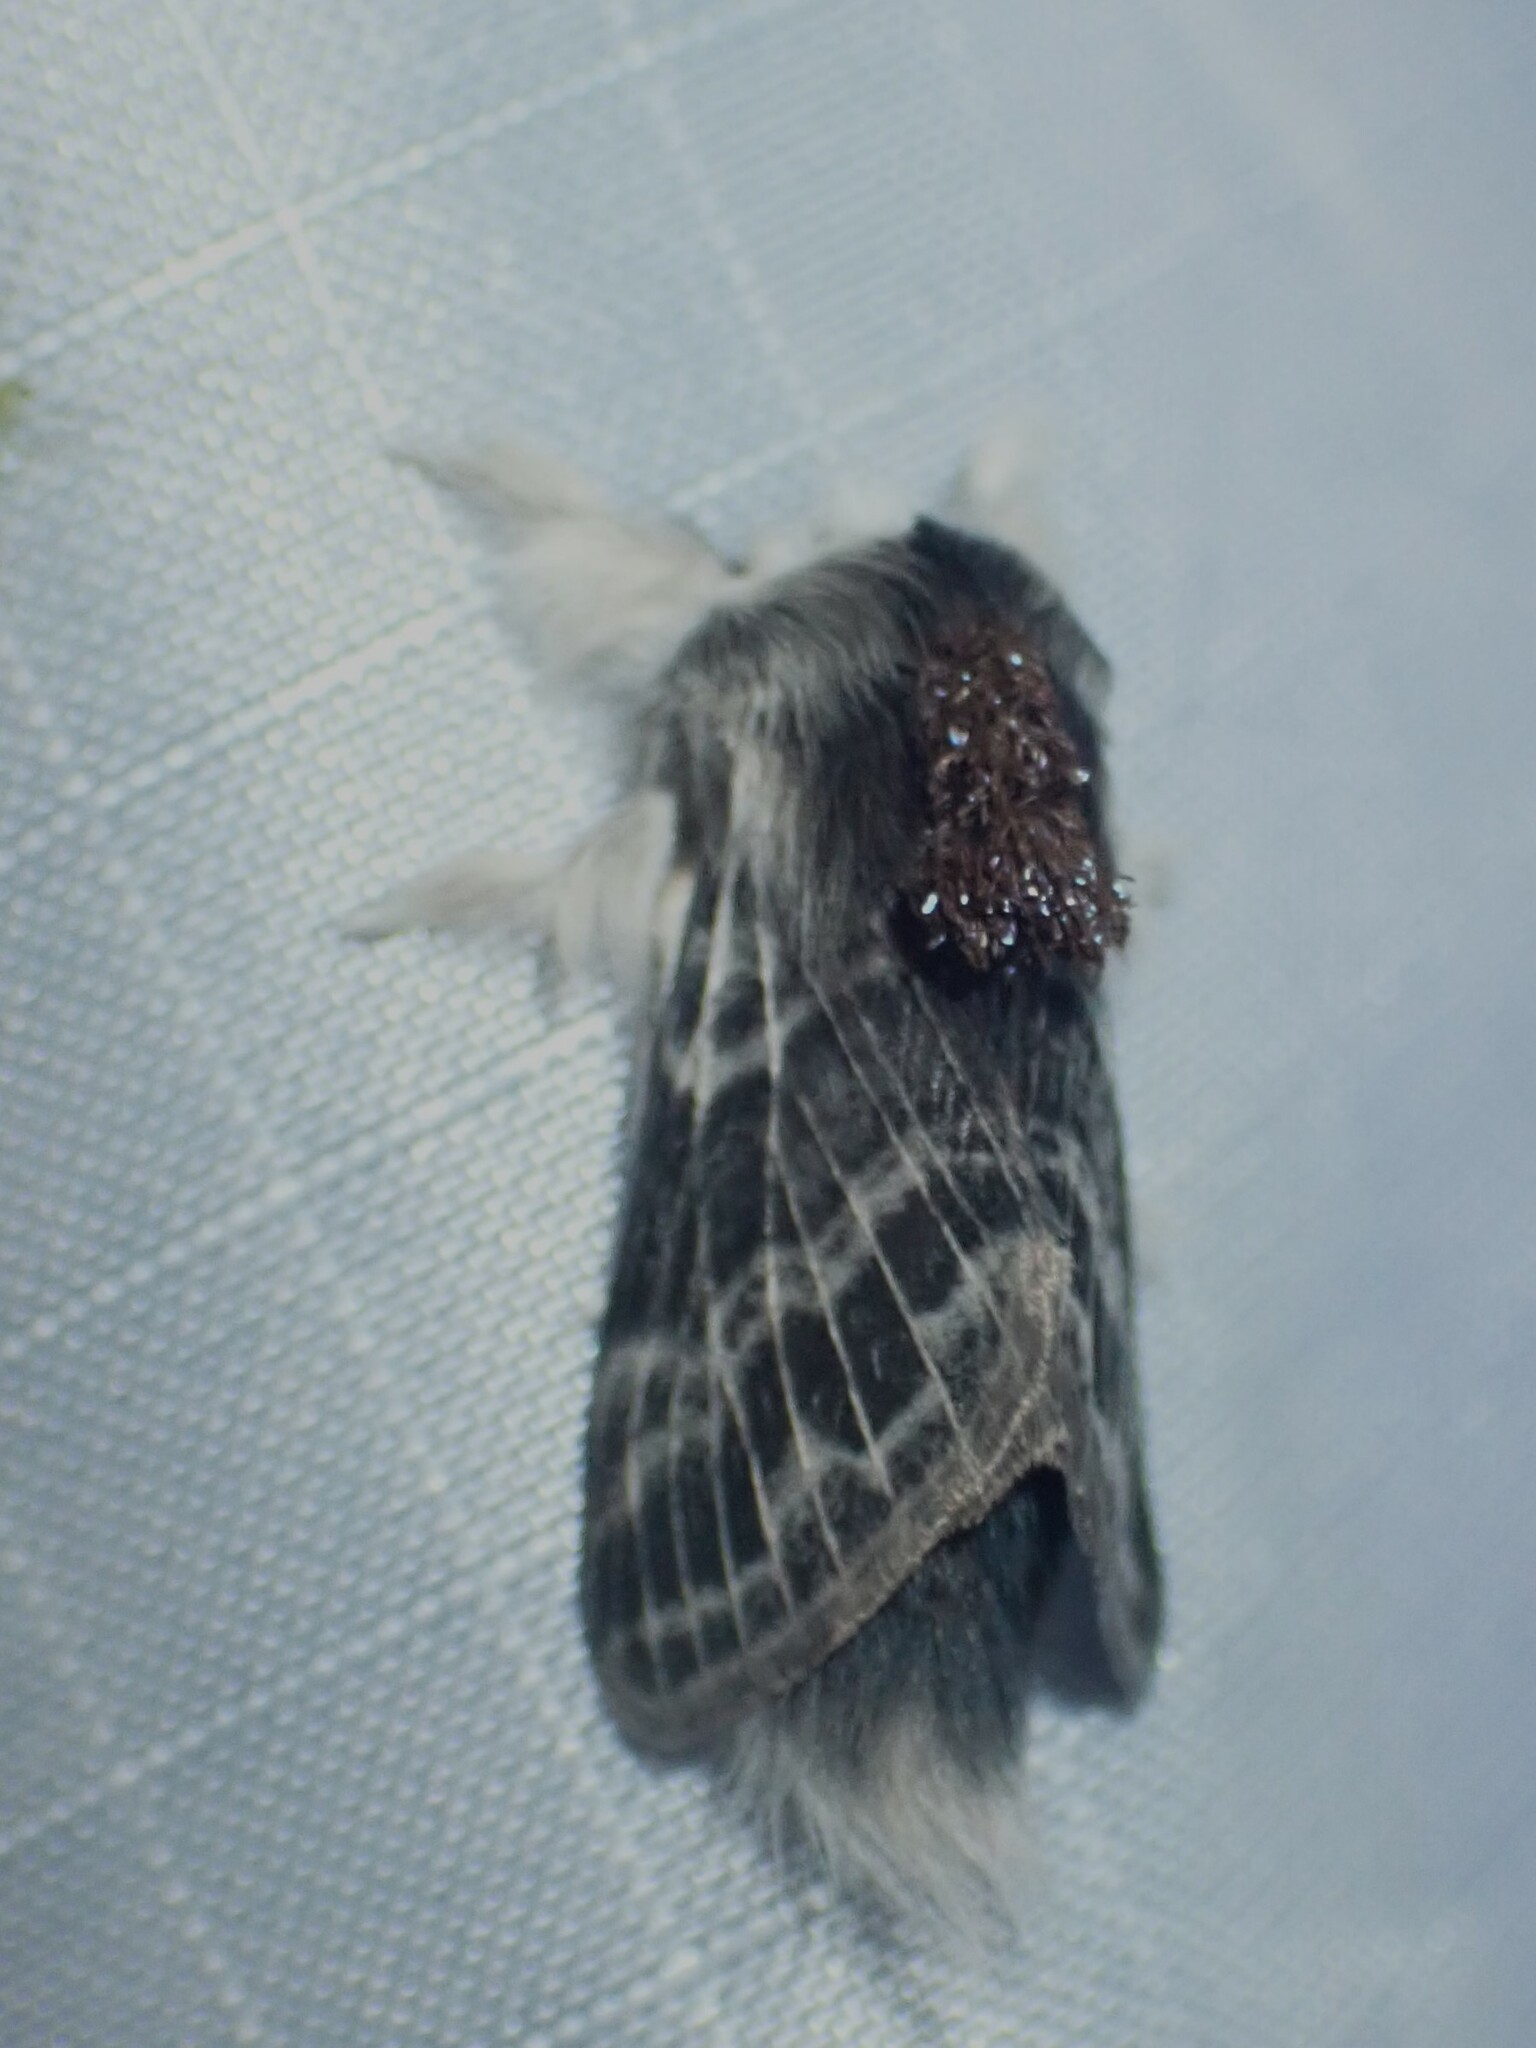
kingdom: Animalia
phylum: Arthropoda
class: Insecta
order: Lepidoptera
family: Lasiocampidae
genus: Tolype
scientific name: Tolype laricis
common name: Larch tolype moth
